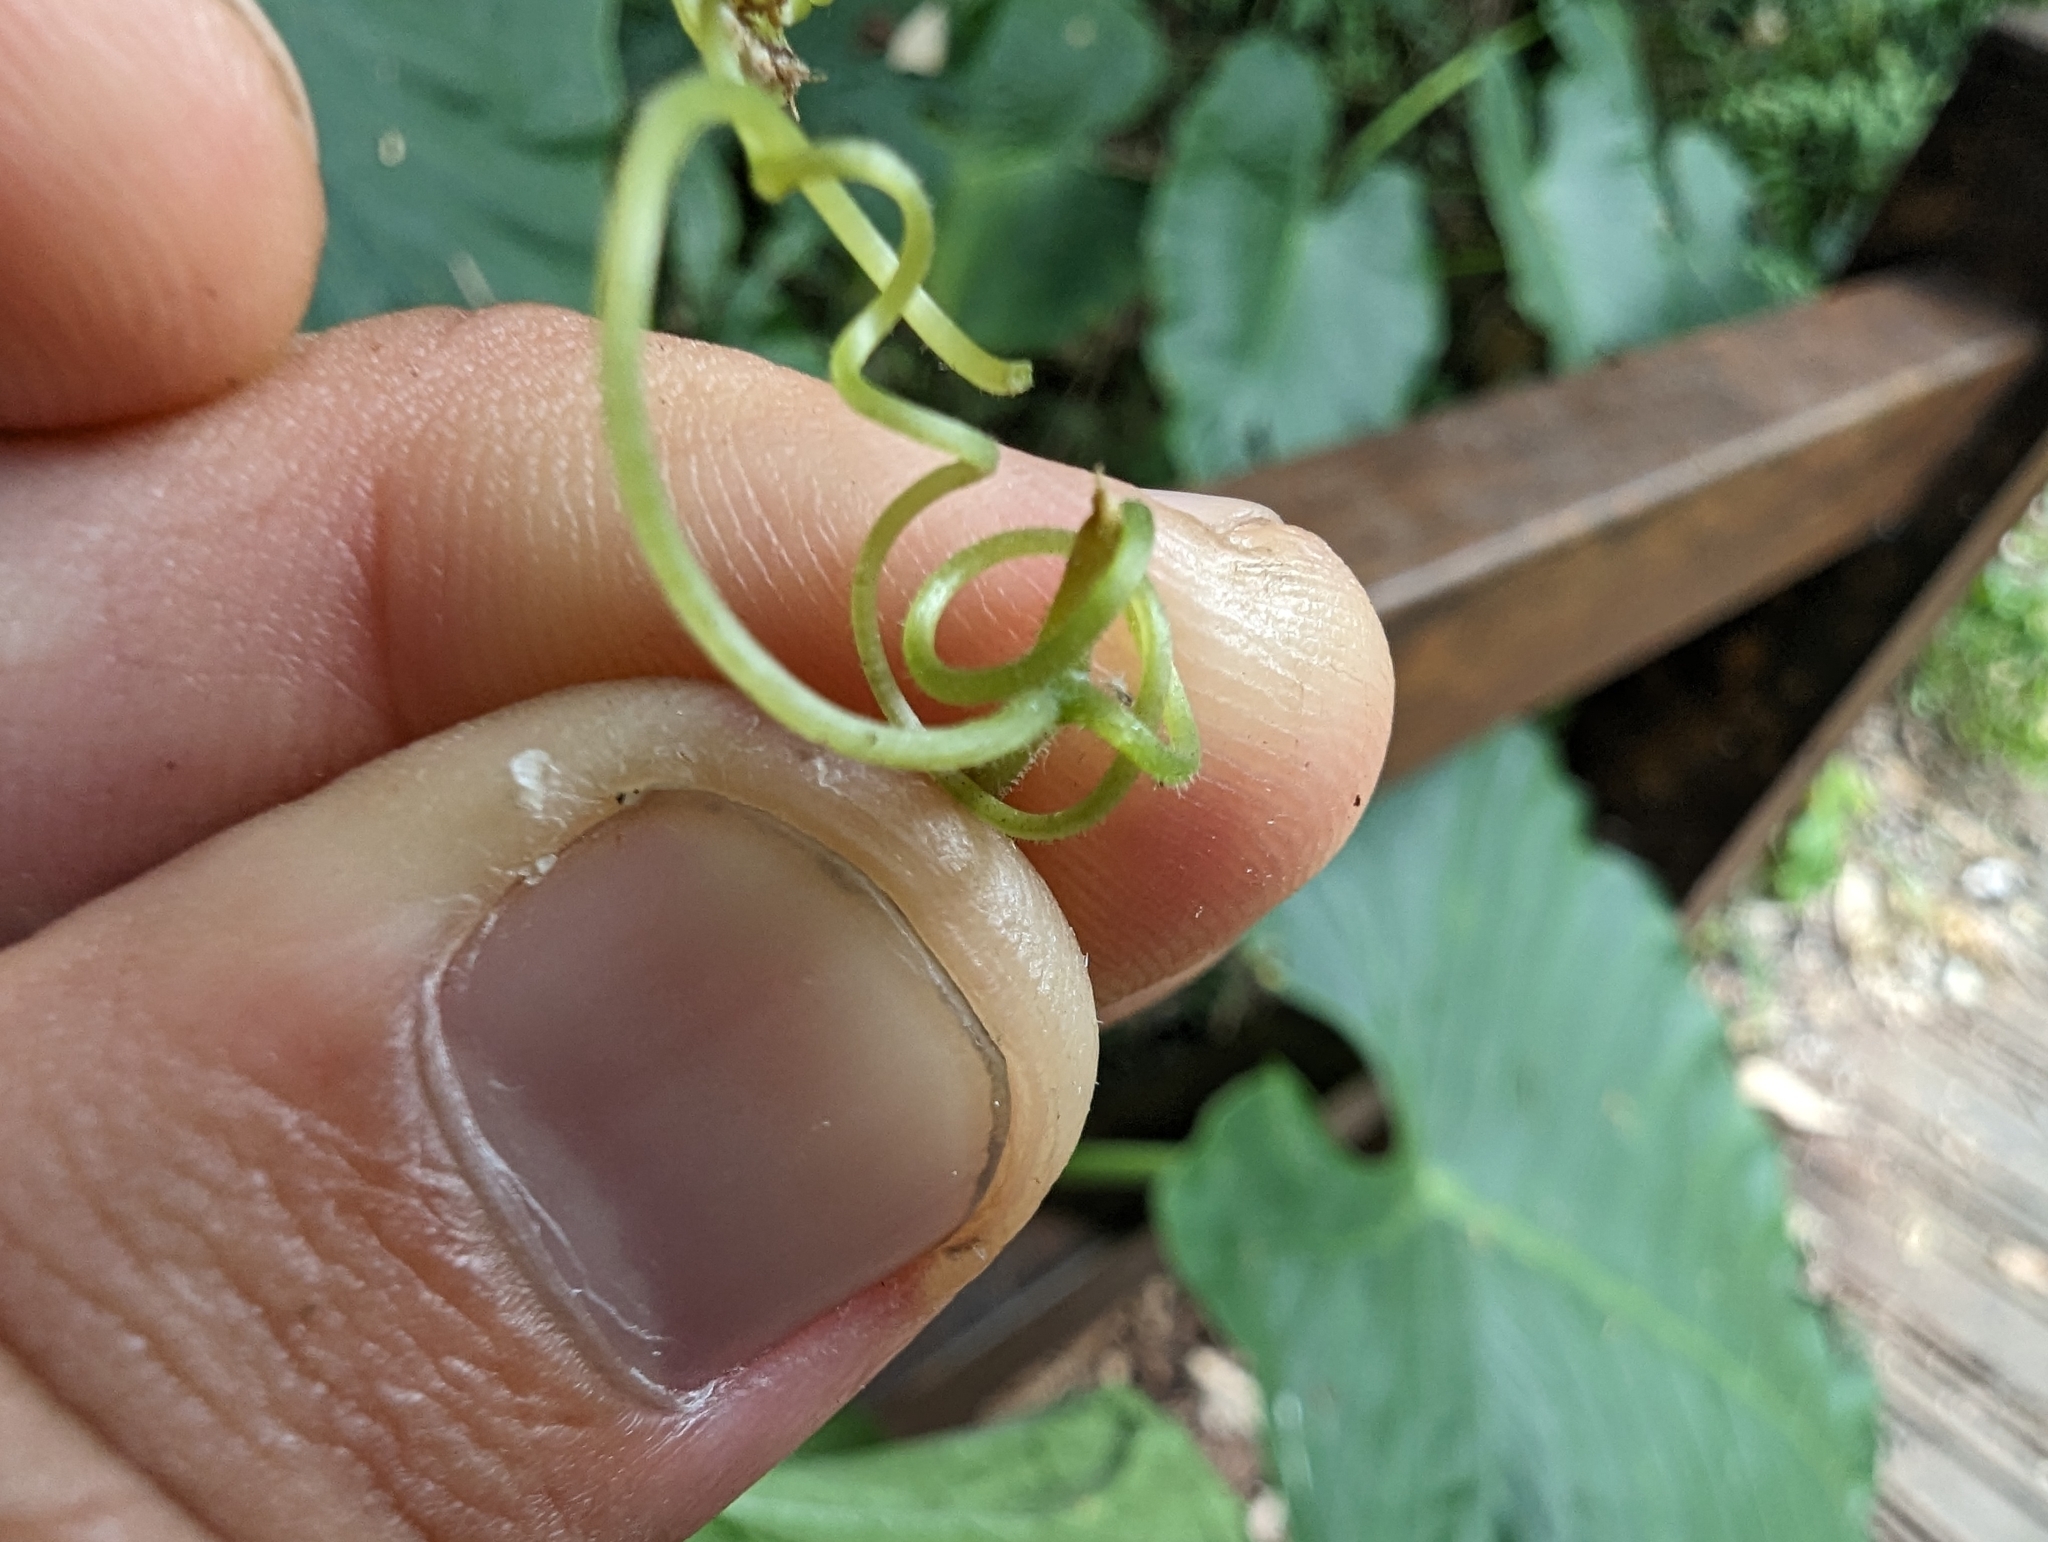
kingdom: Plantae
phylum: Tracheophyta
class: Magnoliopsida
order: Cucurbitales
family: Cucurbitaceae
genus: Trichosanthes
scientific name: Trichosanthes pilosa
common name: Snake gourd
